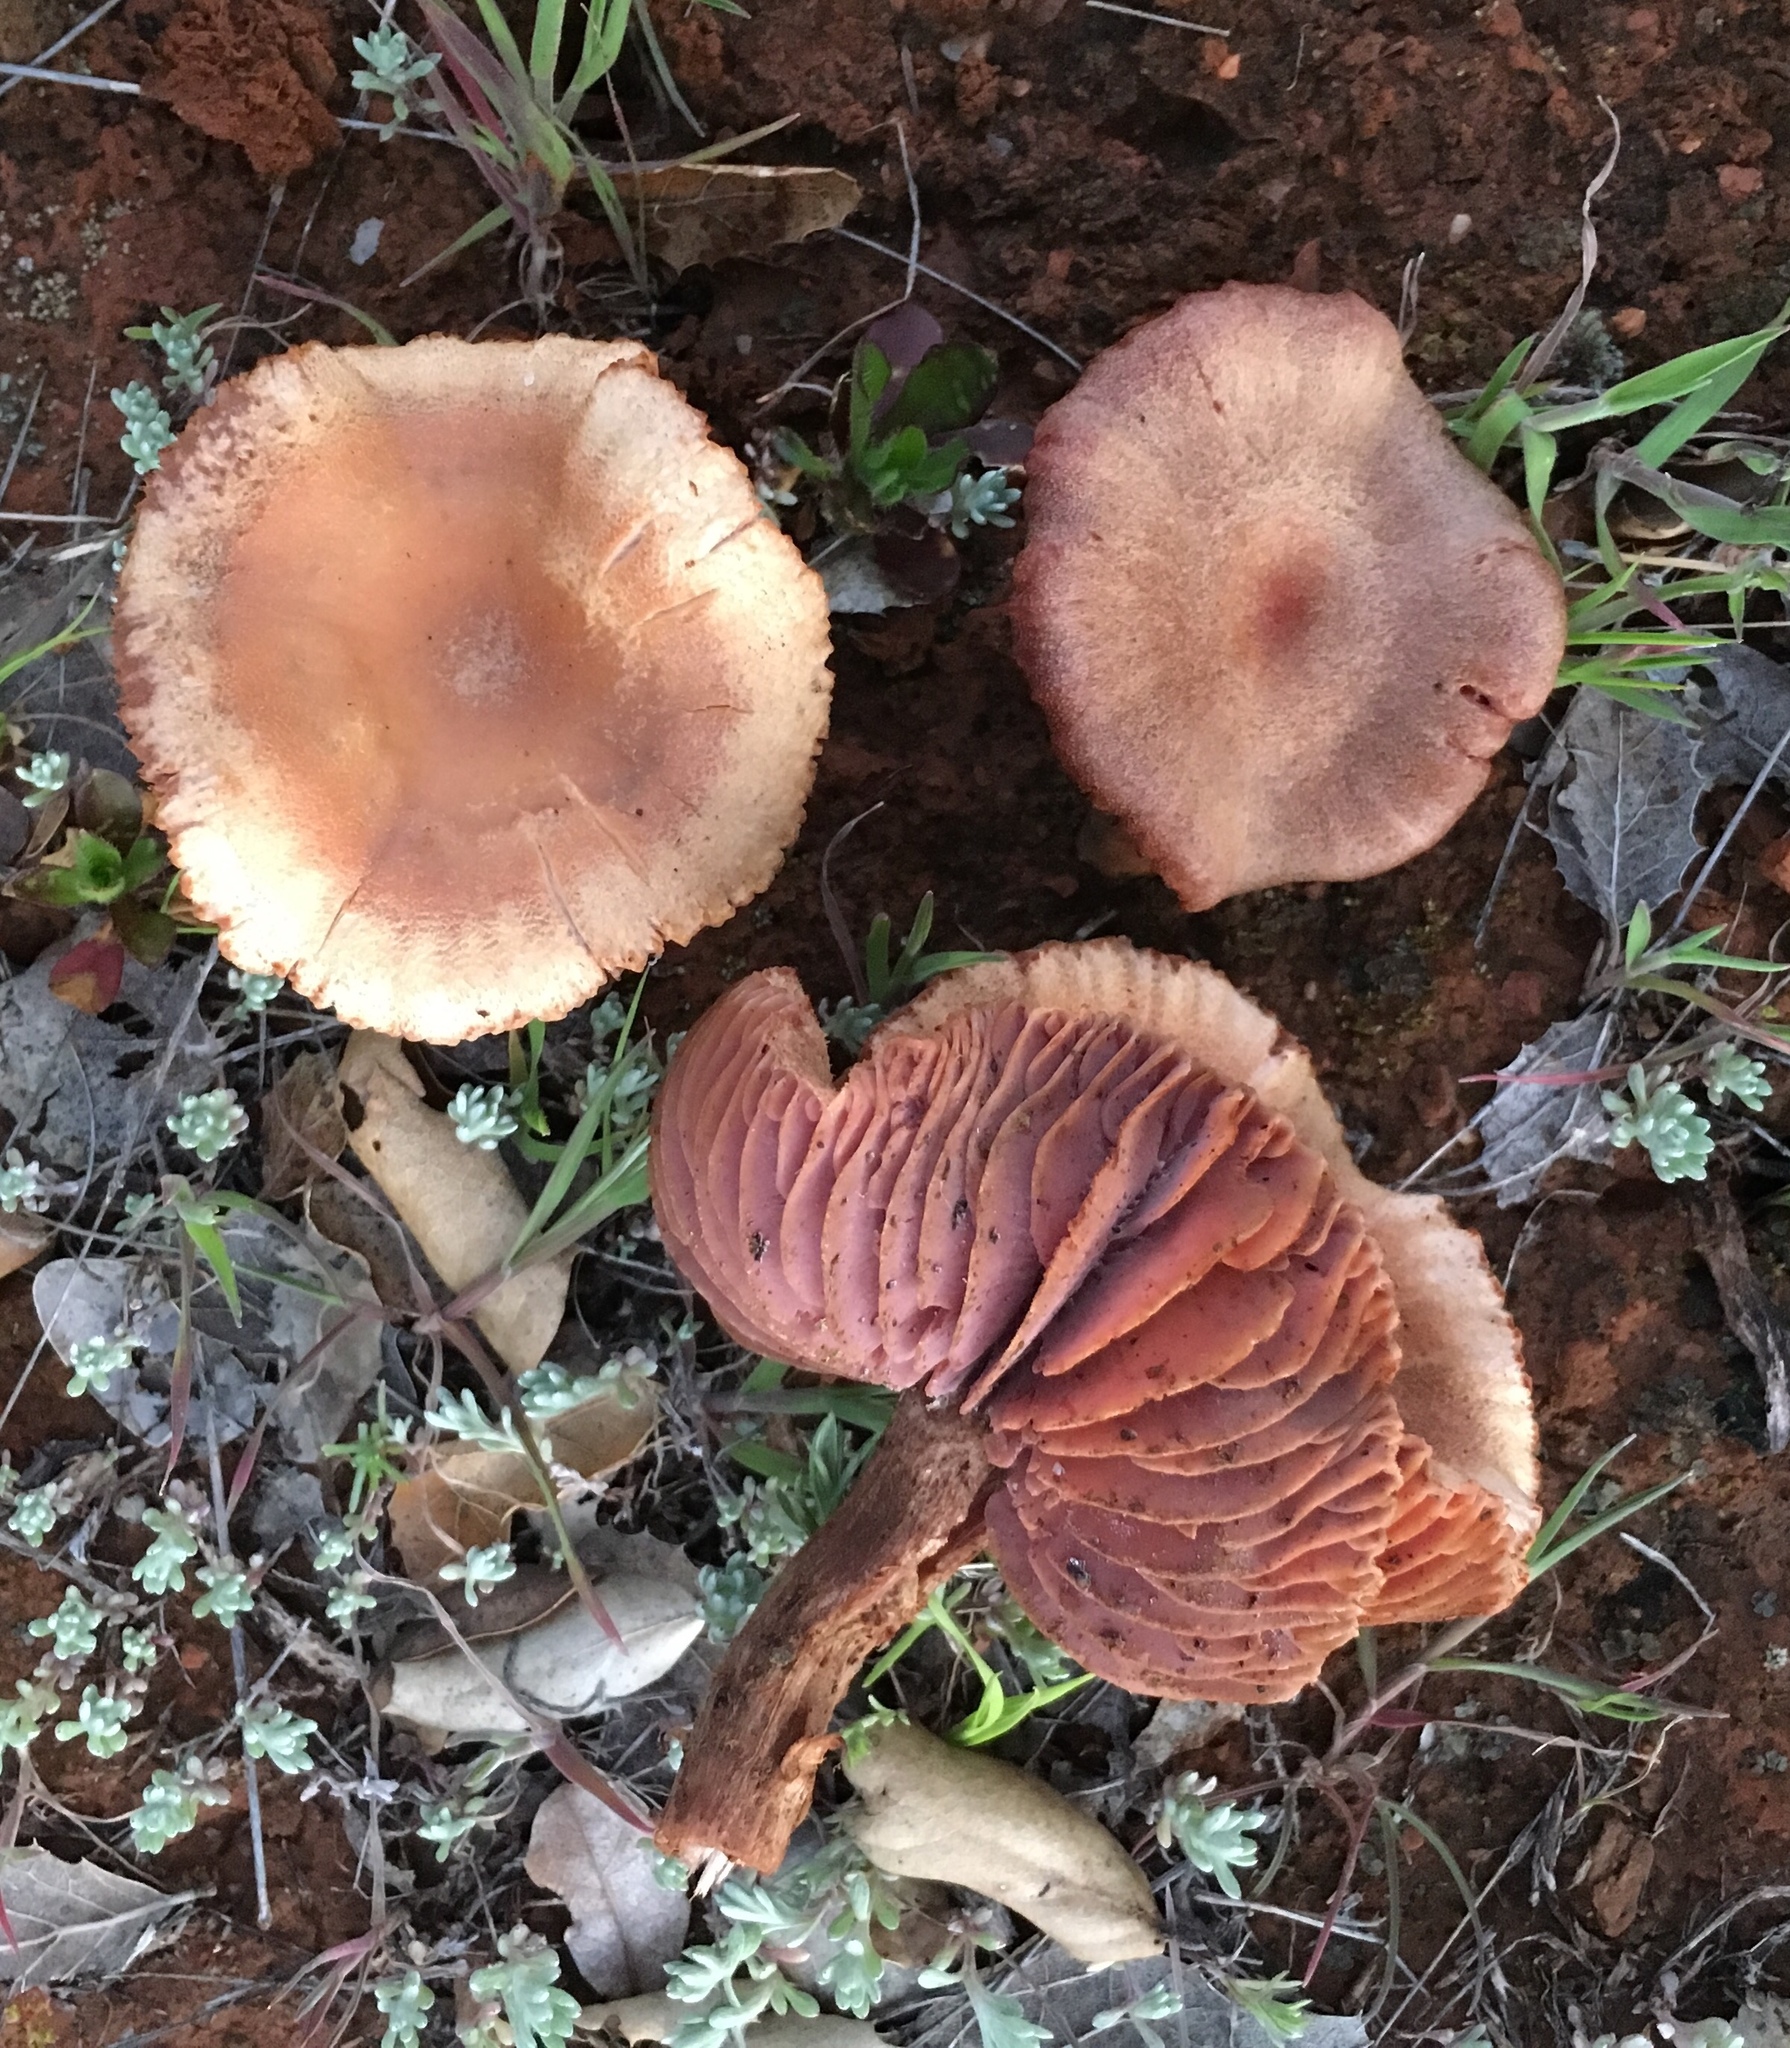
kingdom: Fungi
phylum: Basidiomycota
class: Agaricomycetes
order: Agaricales
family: Hydnangiaceae
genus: Laccaria
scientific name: Laccaria amethysteo-occidentalis
